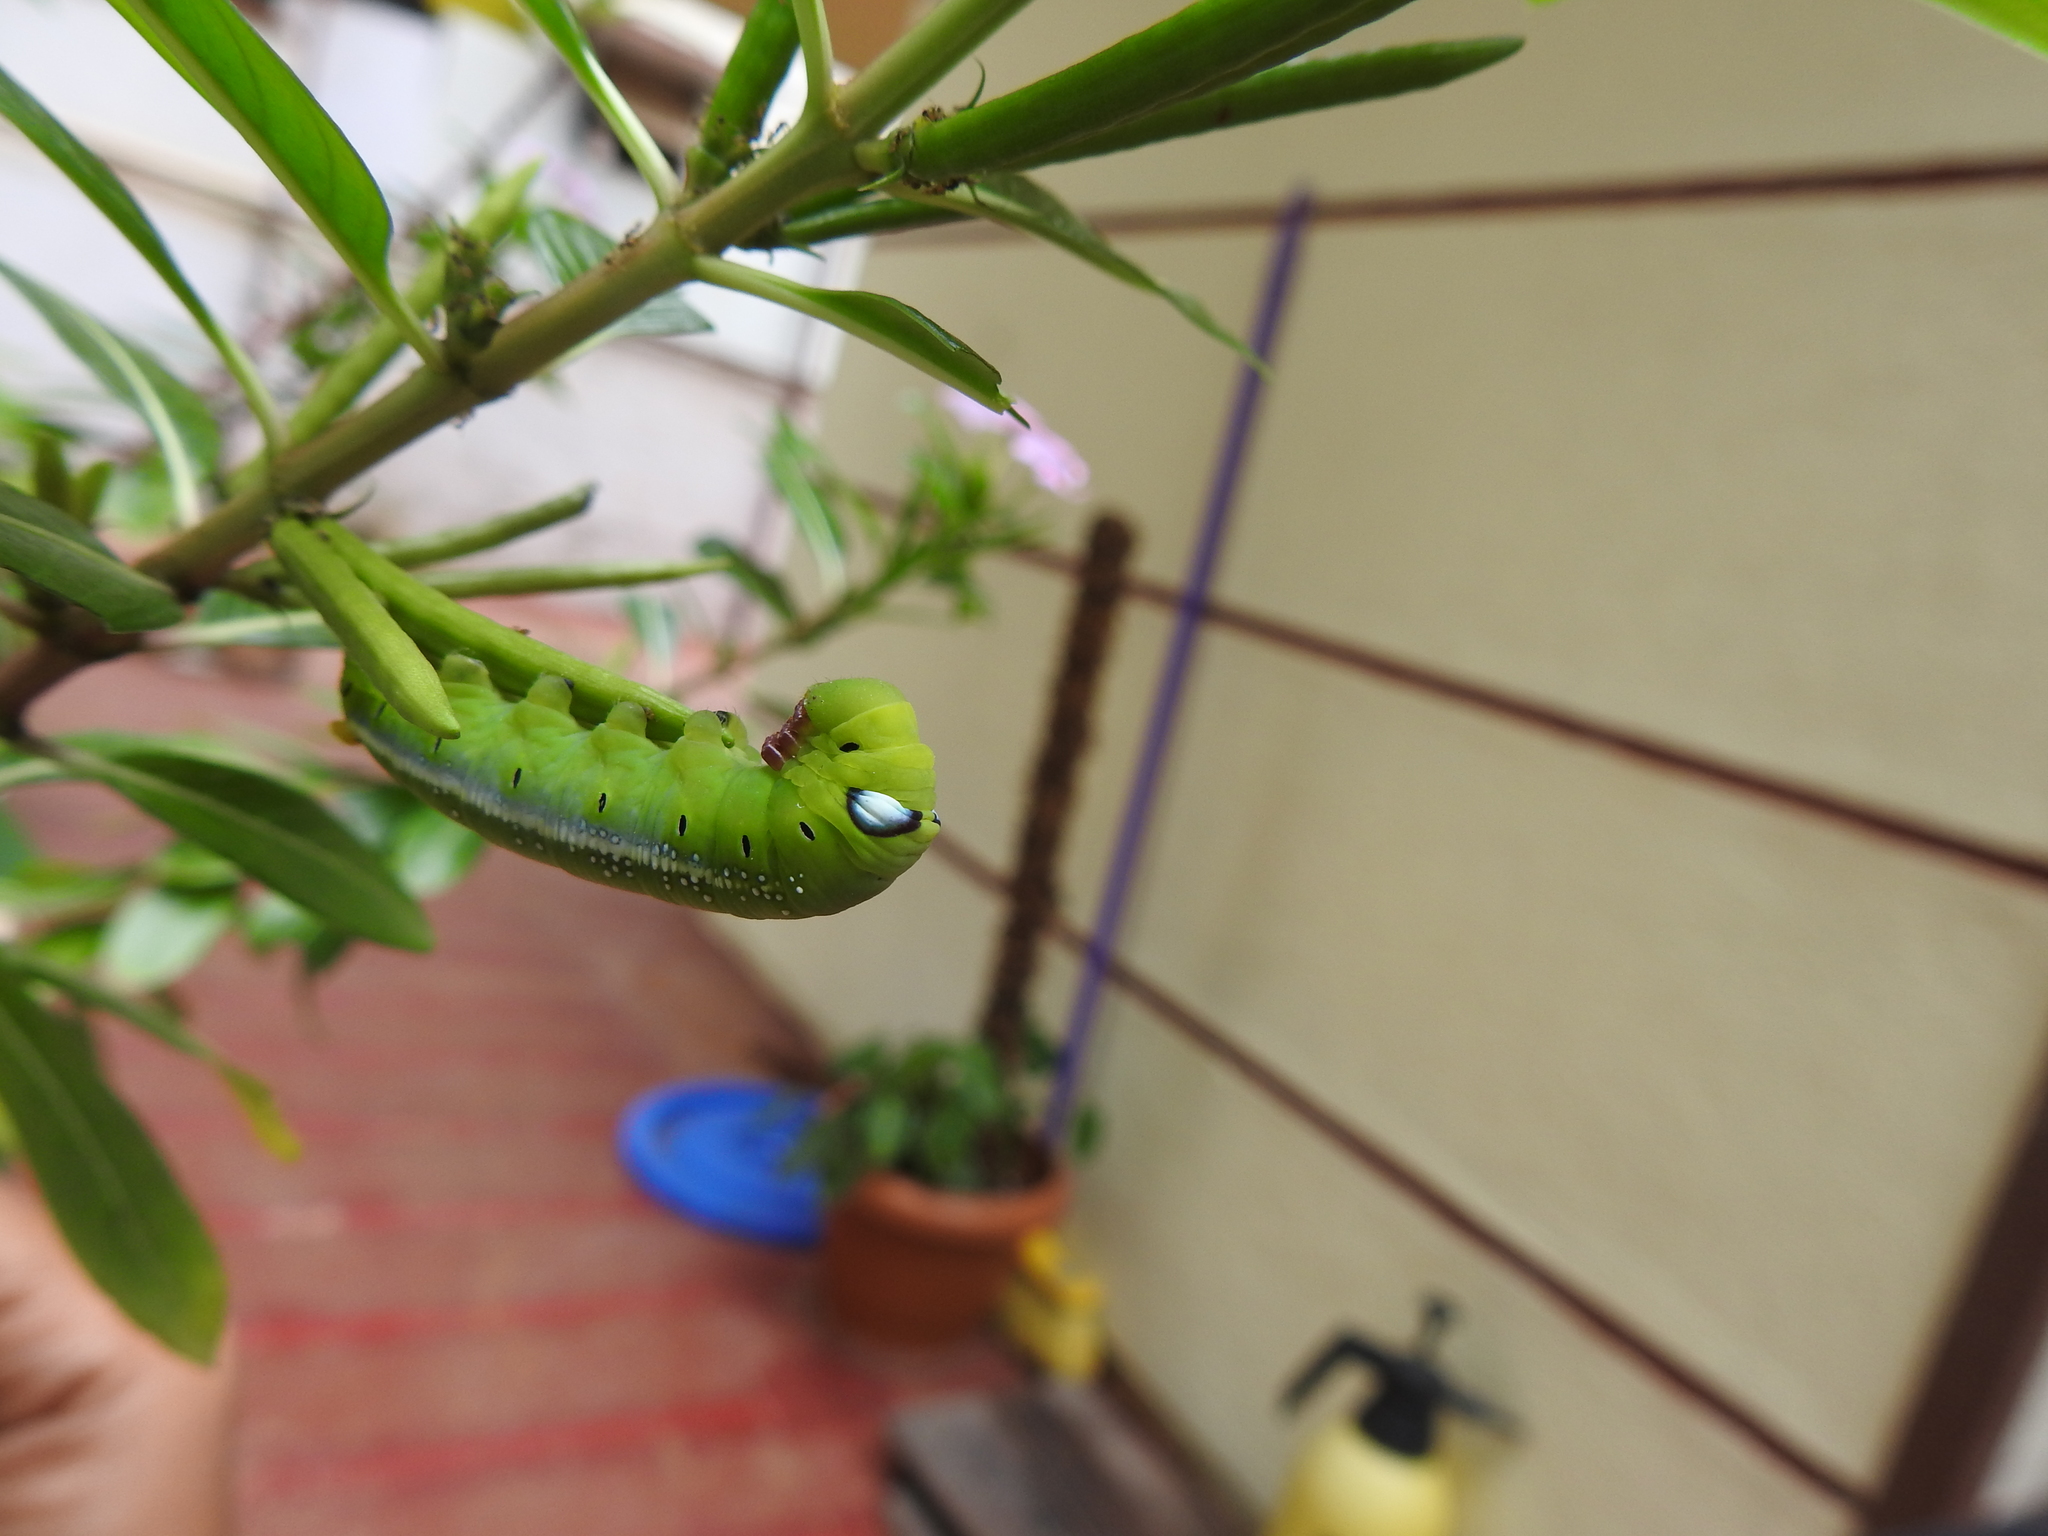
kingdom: Animalia
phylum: Arthropoda
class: Insecta
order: Lepidoptera
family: Sphingidae
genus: Daphnis
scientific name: Daphnis nerii
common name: Oleander hawk-moth
